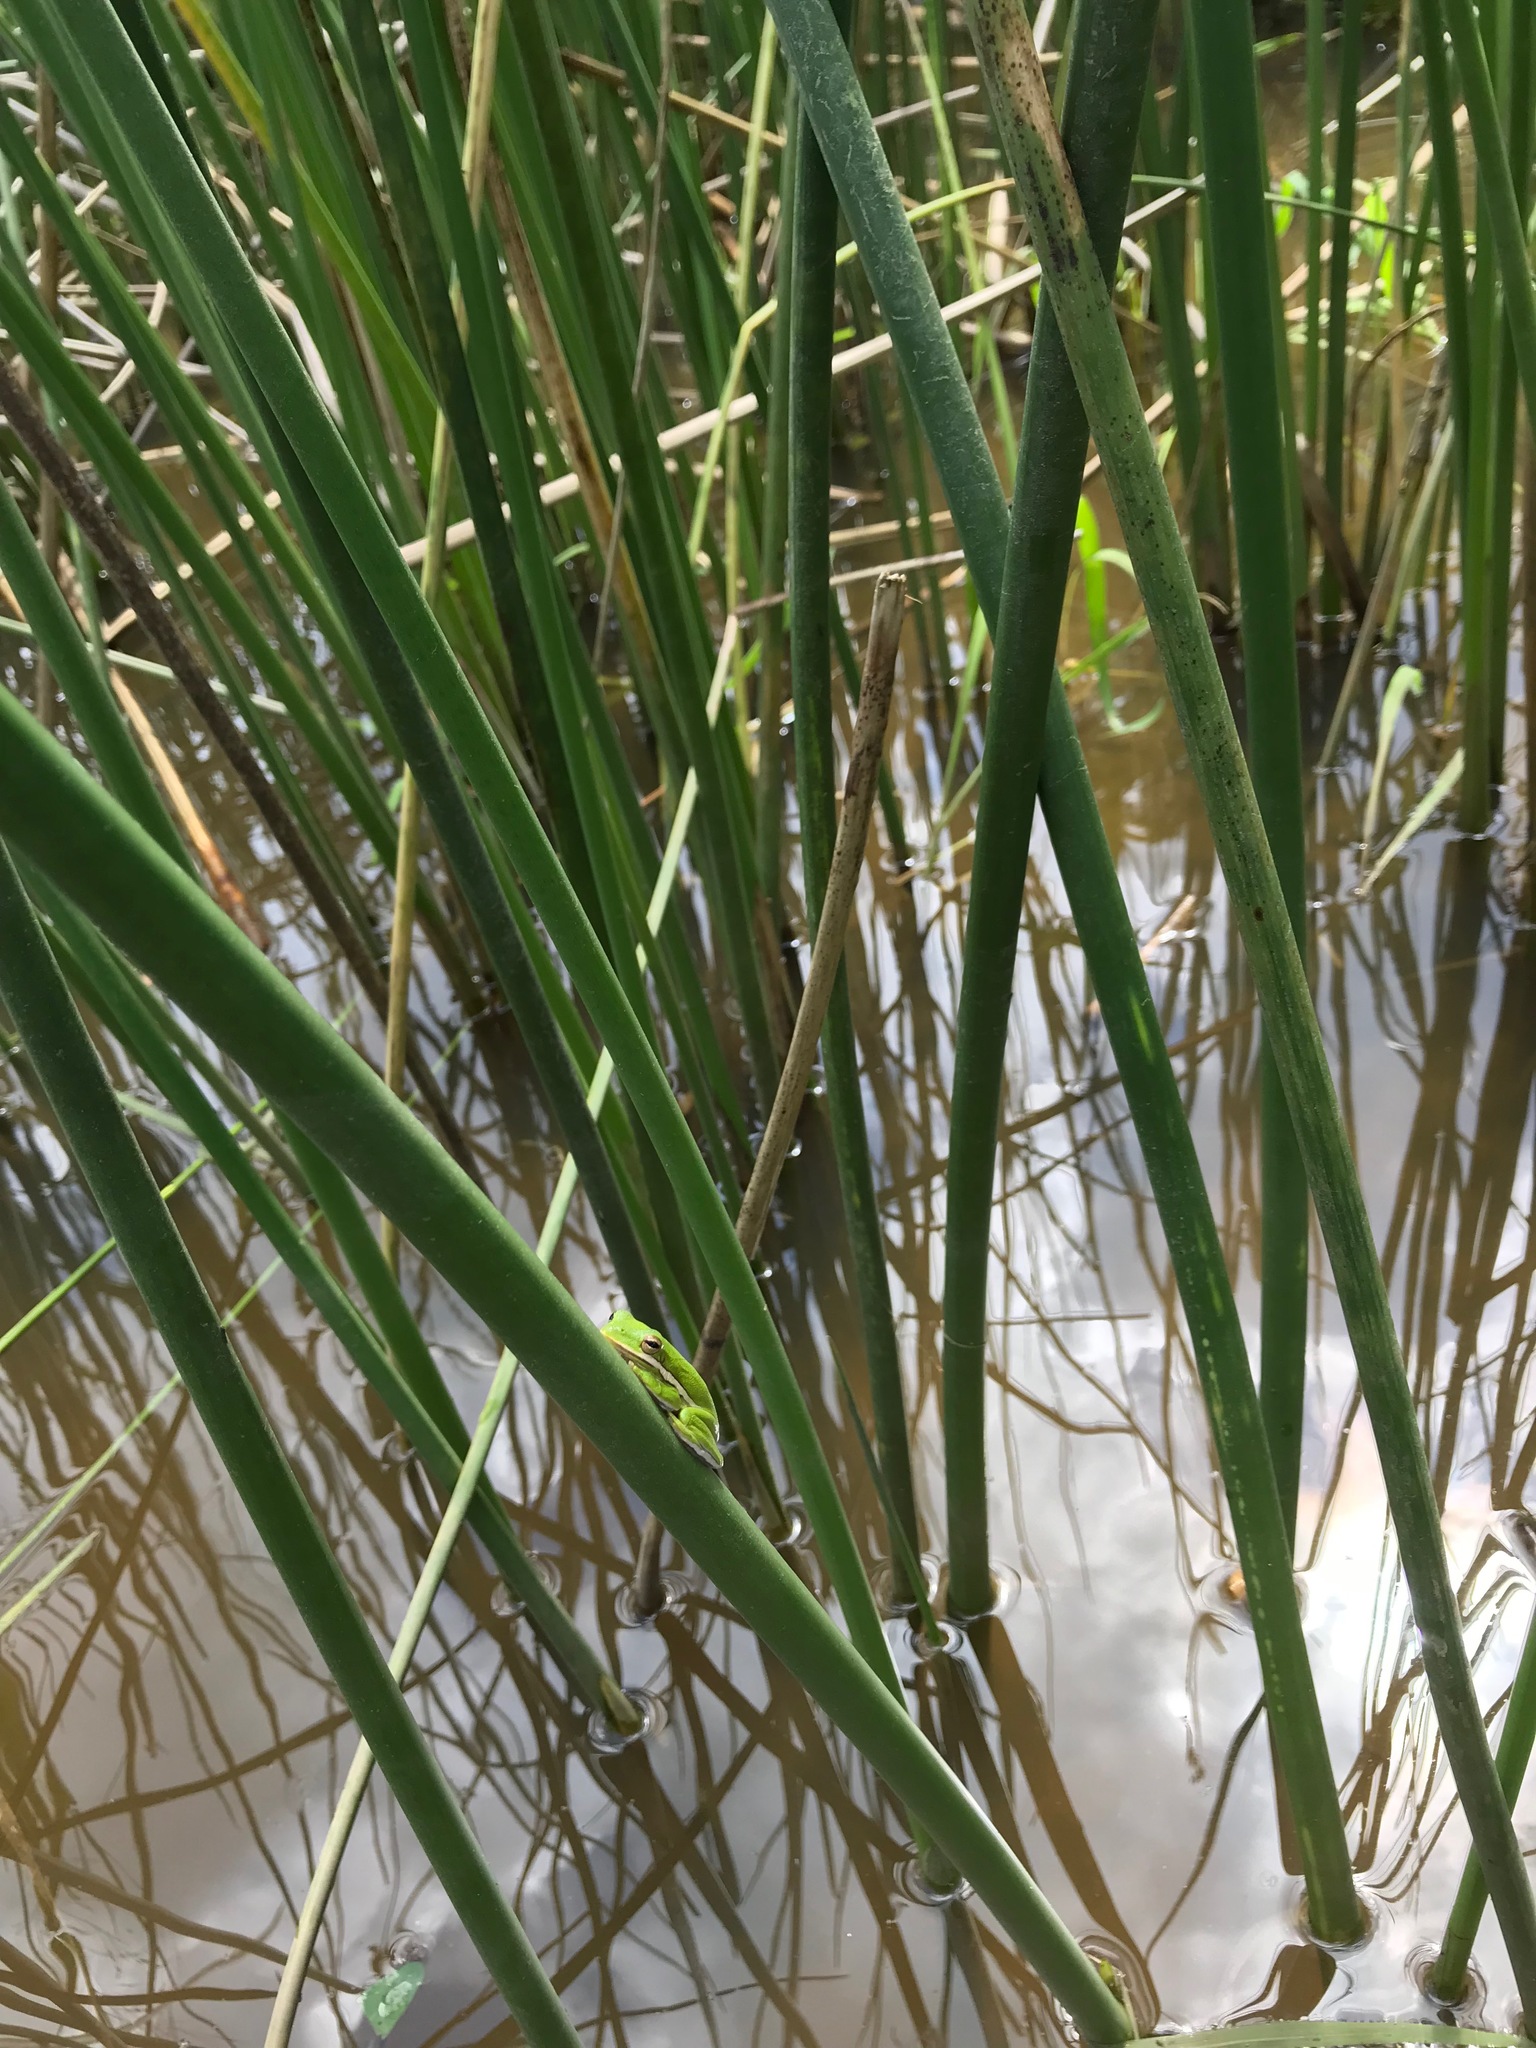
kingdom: Animalia
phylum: Chordata
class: Amphibia
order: Anura
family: Hylidae
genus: Dryophytes
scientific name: Dryophytes cinereus
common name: Green treefrog
